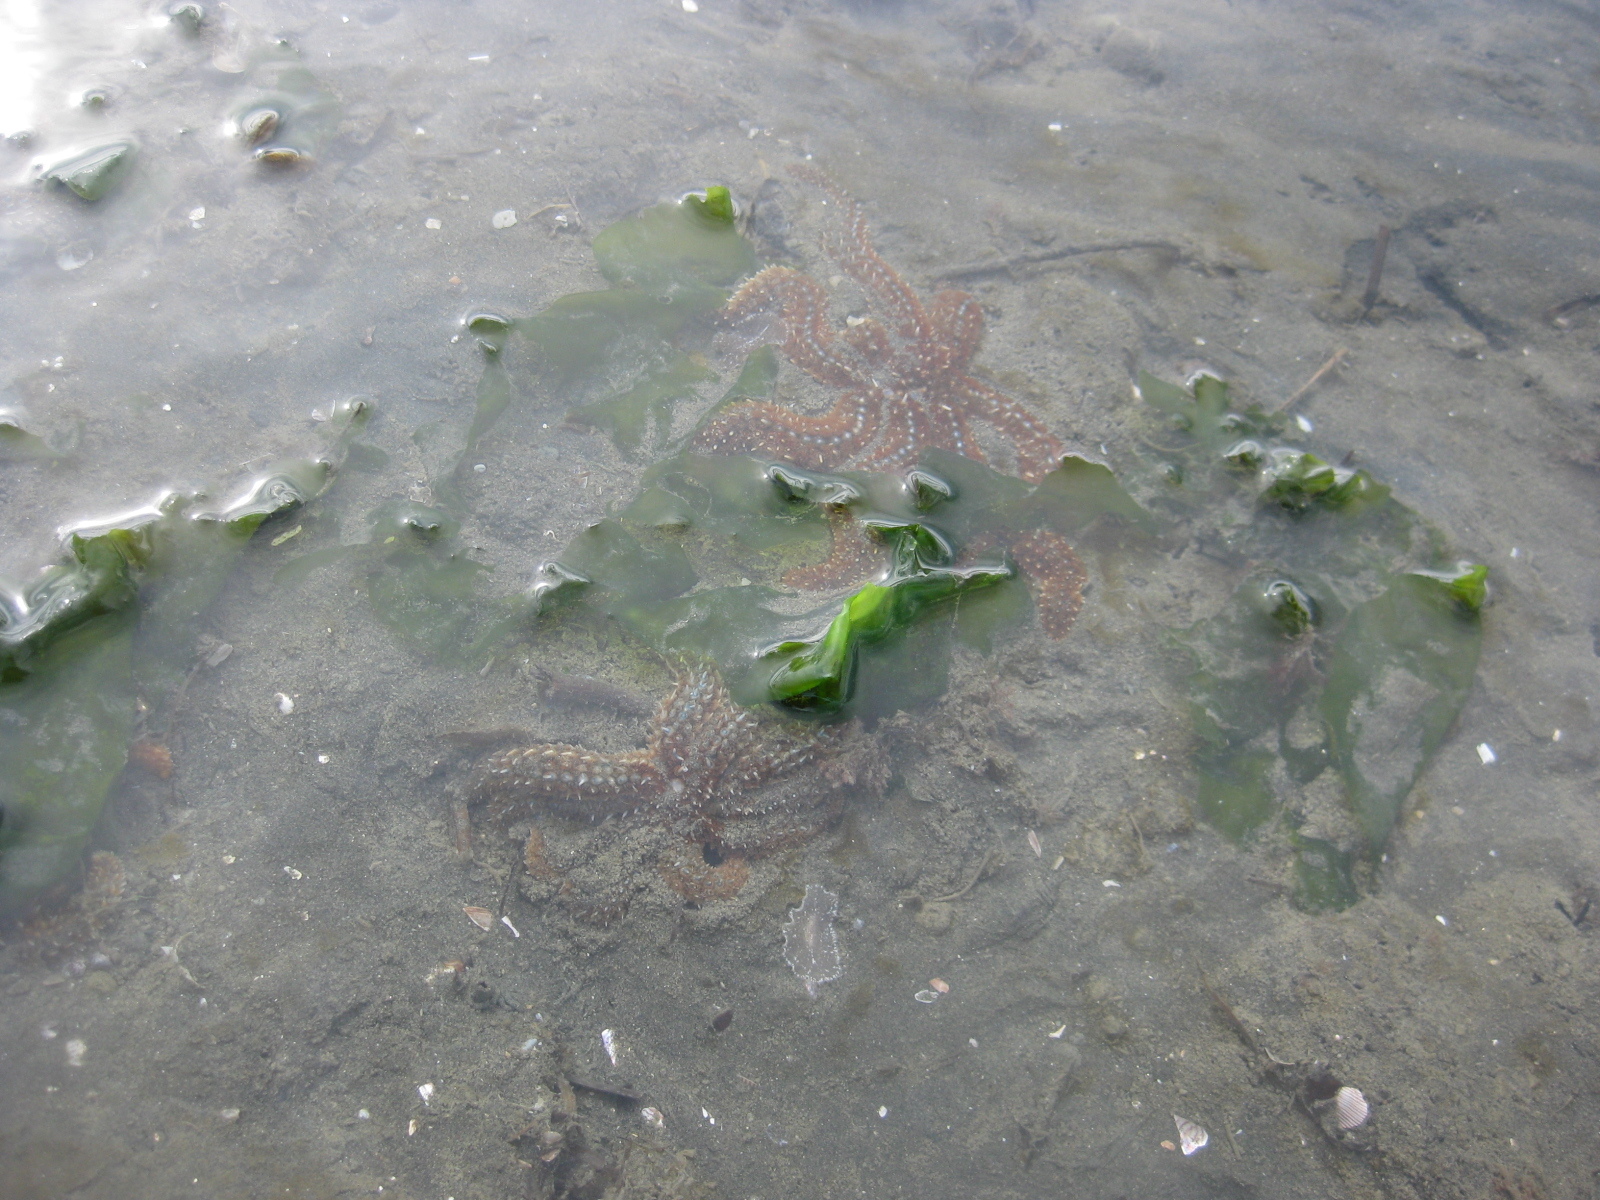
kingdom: Animalia
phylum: Echinodermata
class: Asteroidea
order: Forcipulatida
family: Asteriidae
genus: Coscinasterias
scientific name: Coscinasterias muricata
